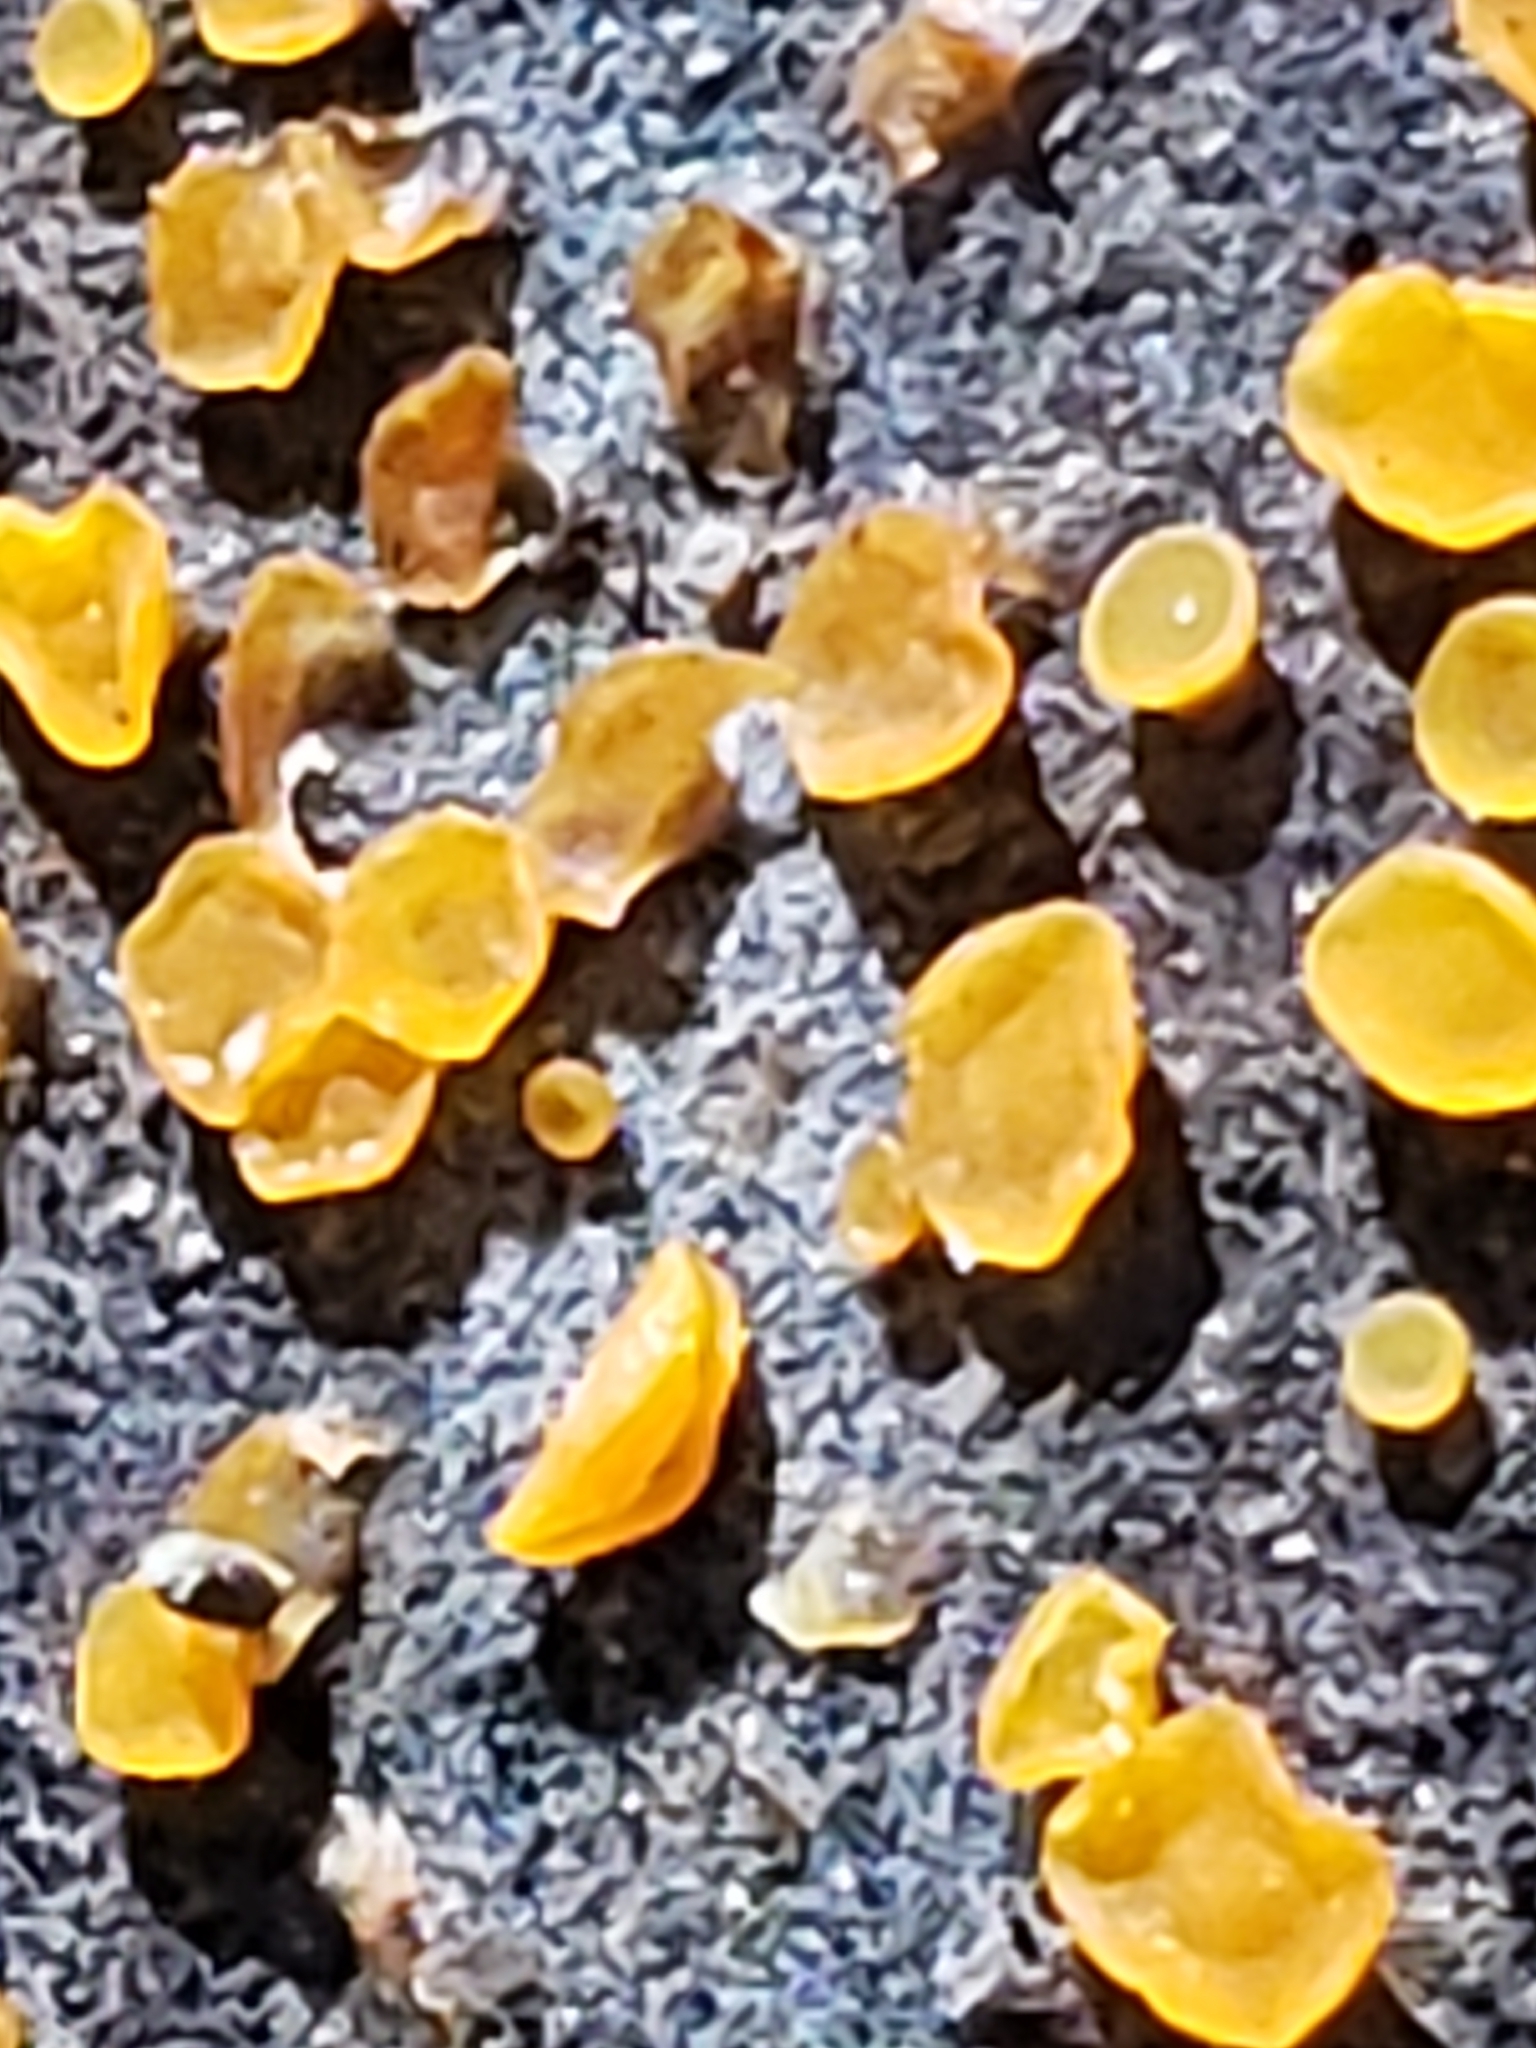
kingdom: Fungi
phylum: Ascomycota
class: Orbiliomycetes
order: Orbiliales
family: Orbiliaceae
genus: Orbilia
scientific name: Orbilia
